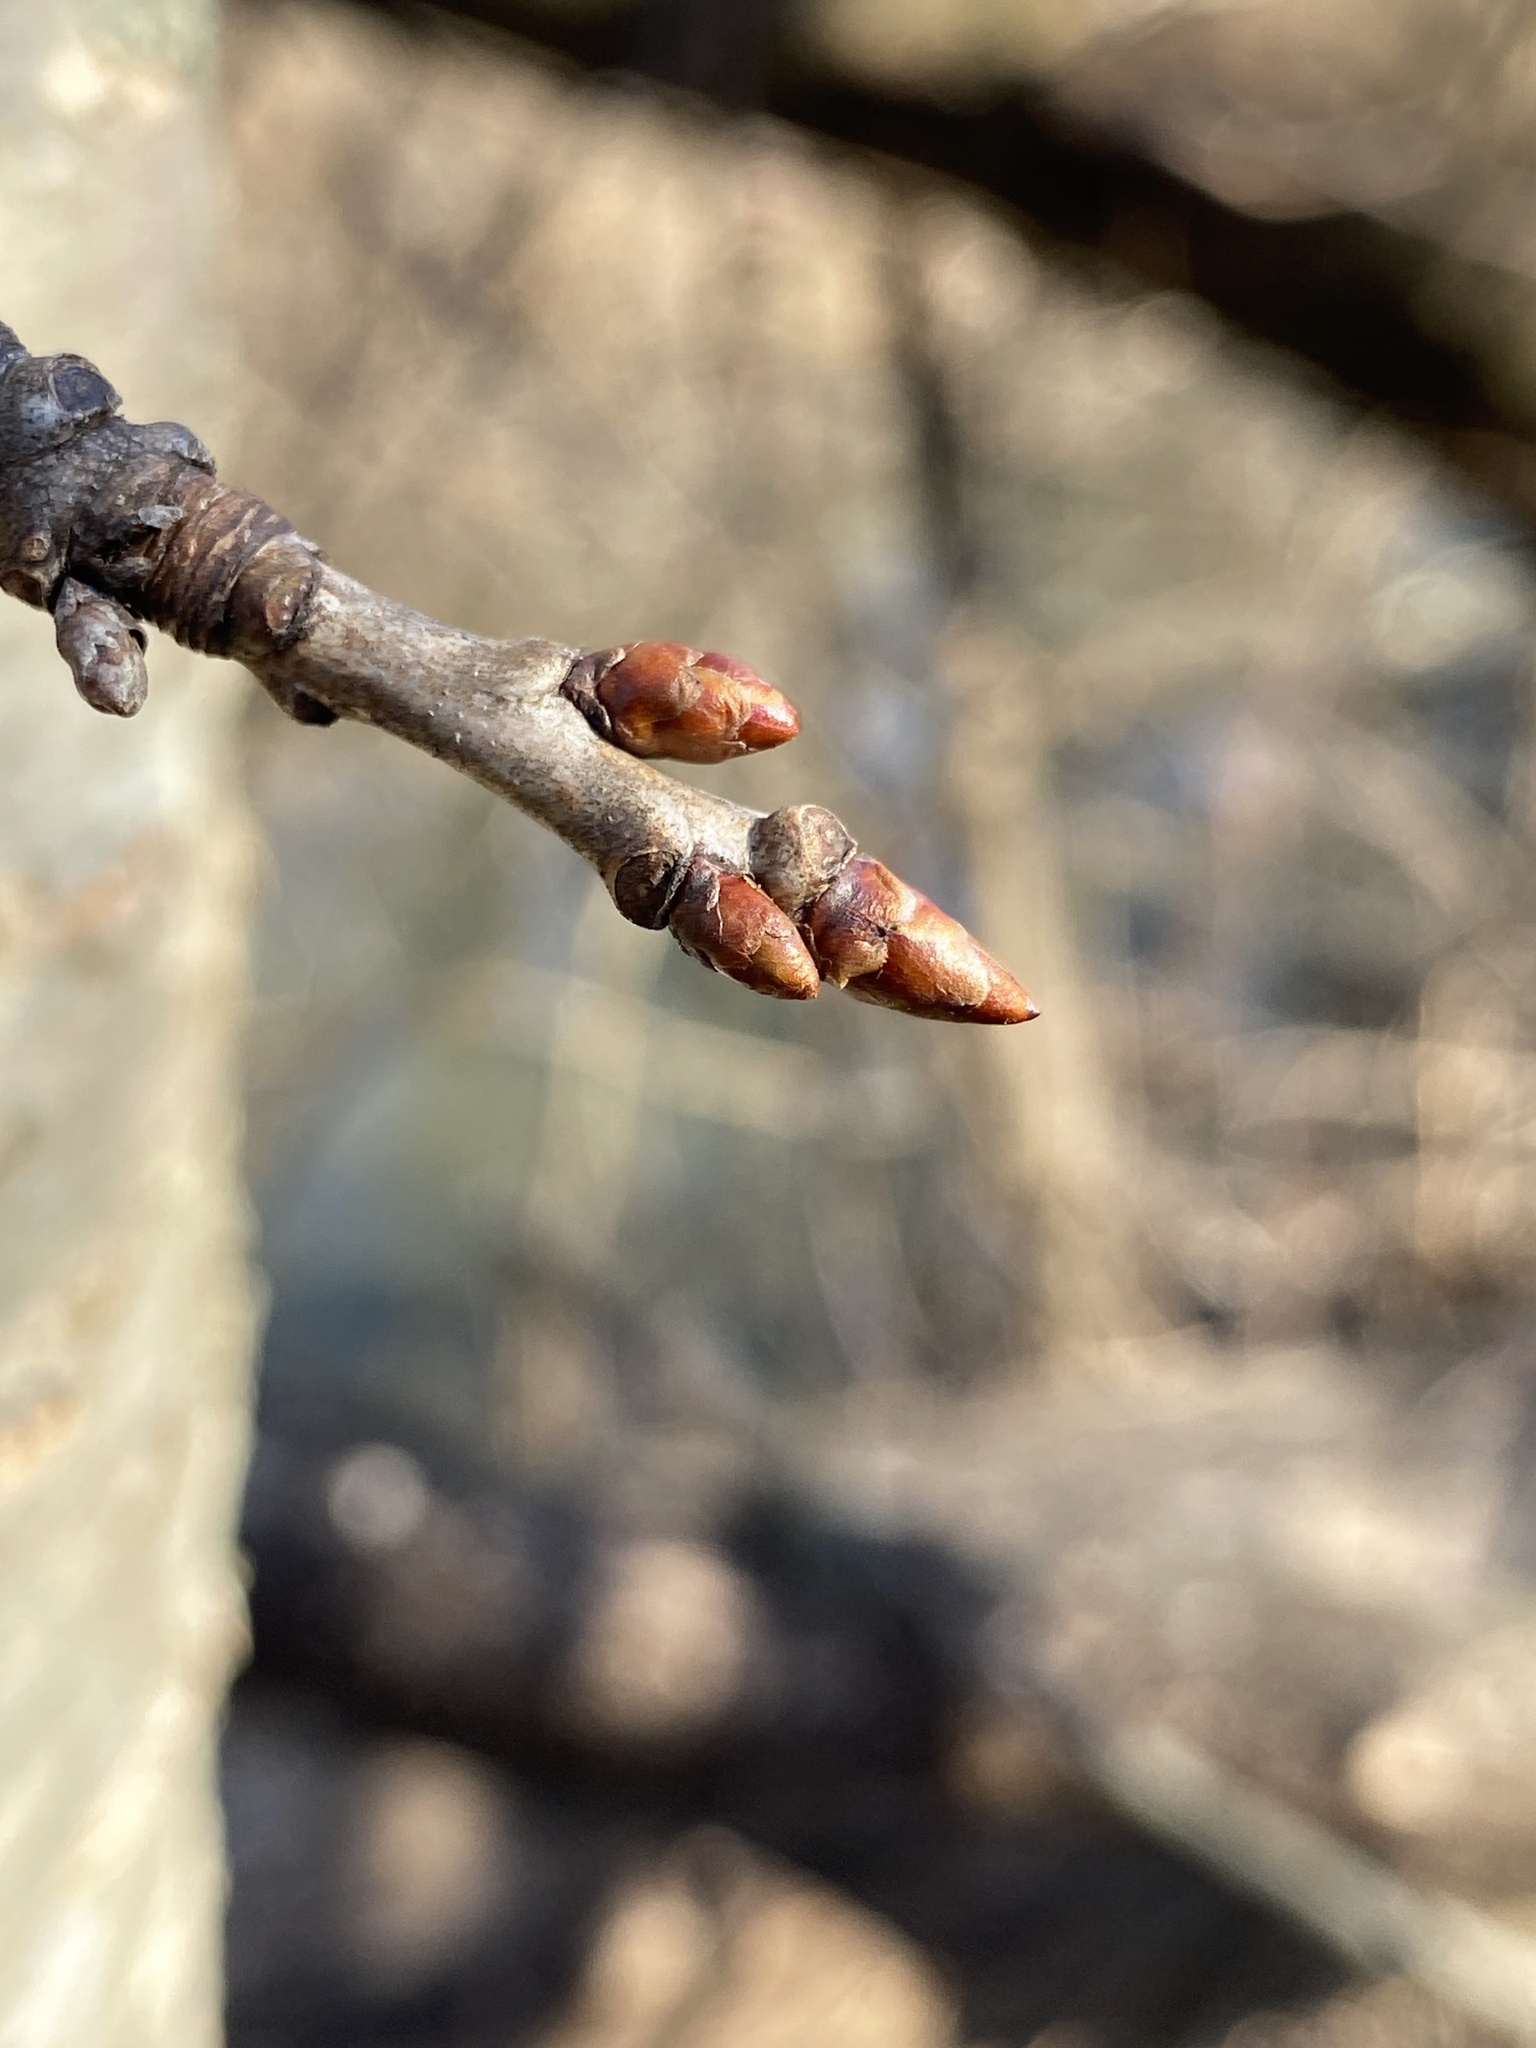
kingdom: Plantae
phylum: Tracheophyta
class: Magnoliopsida
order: Fagales
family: Betulaceae
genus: Betula
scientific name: Betula lenta
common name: Black birch
